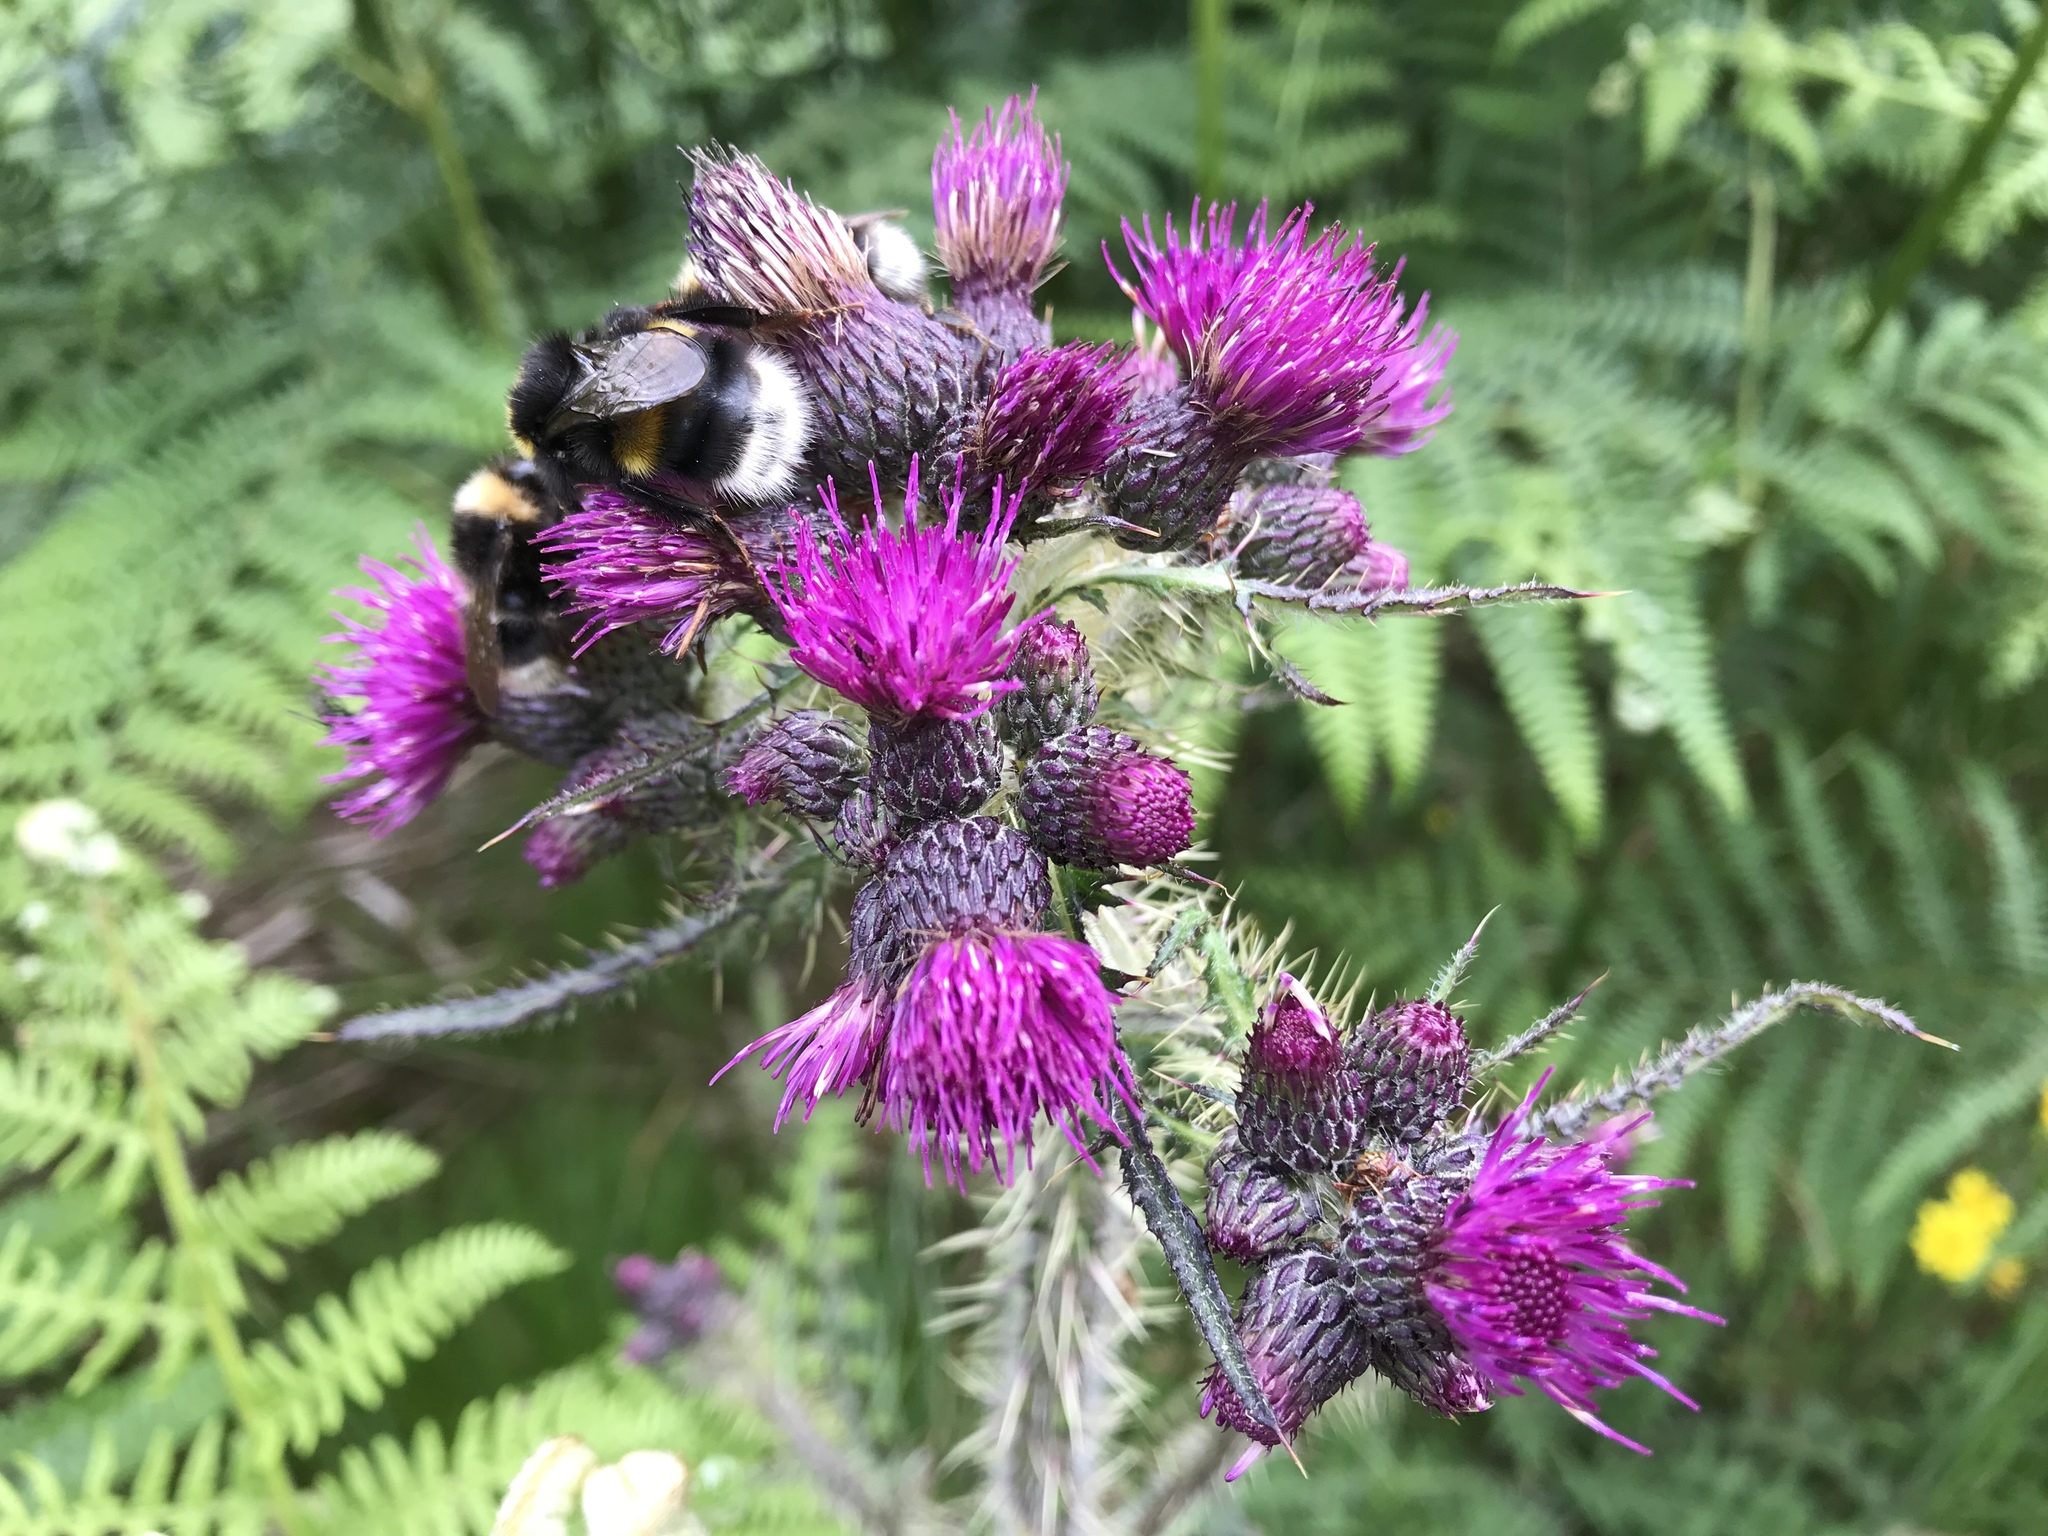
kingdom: Plantae
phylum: Tracheophyta
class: Magnoliopsida
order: Asterales
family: Asteraceae
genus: Cirsium
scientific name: Cirsium palustre
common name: Marsh thistle
